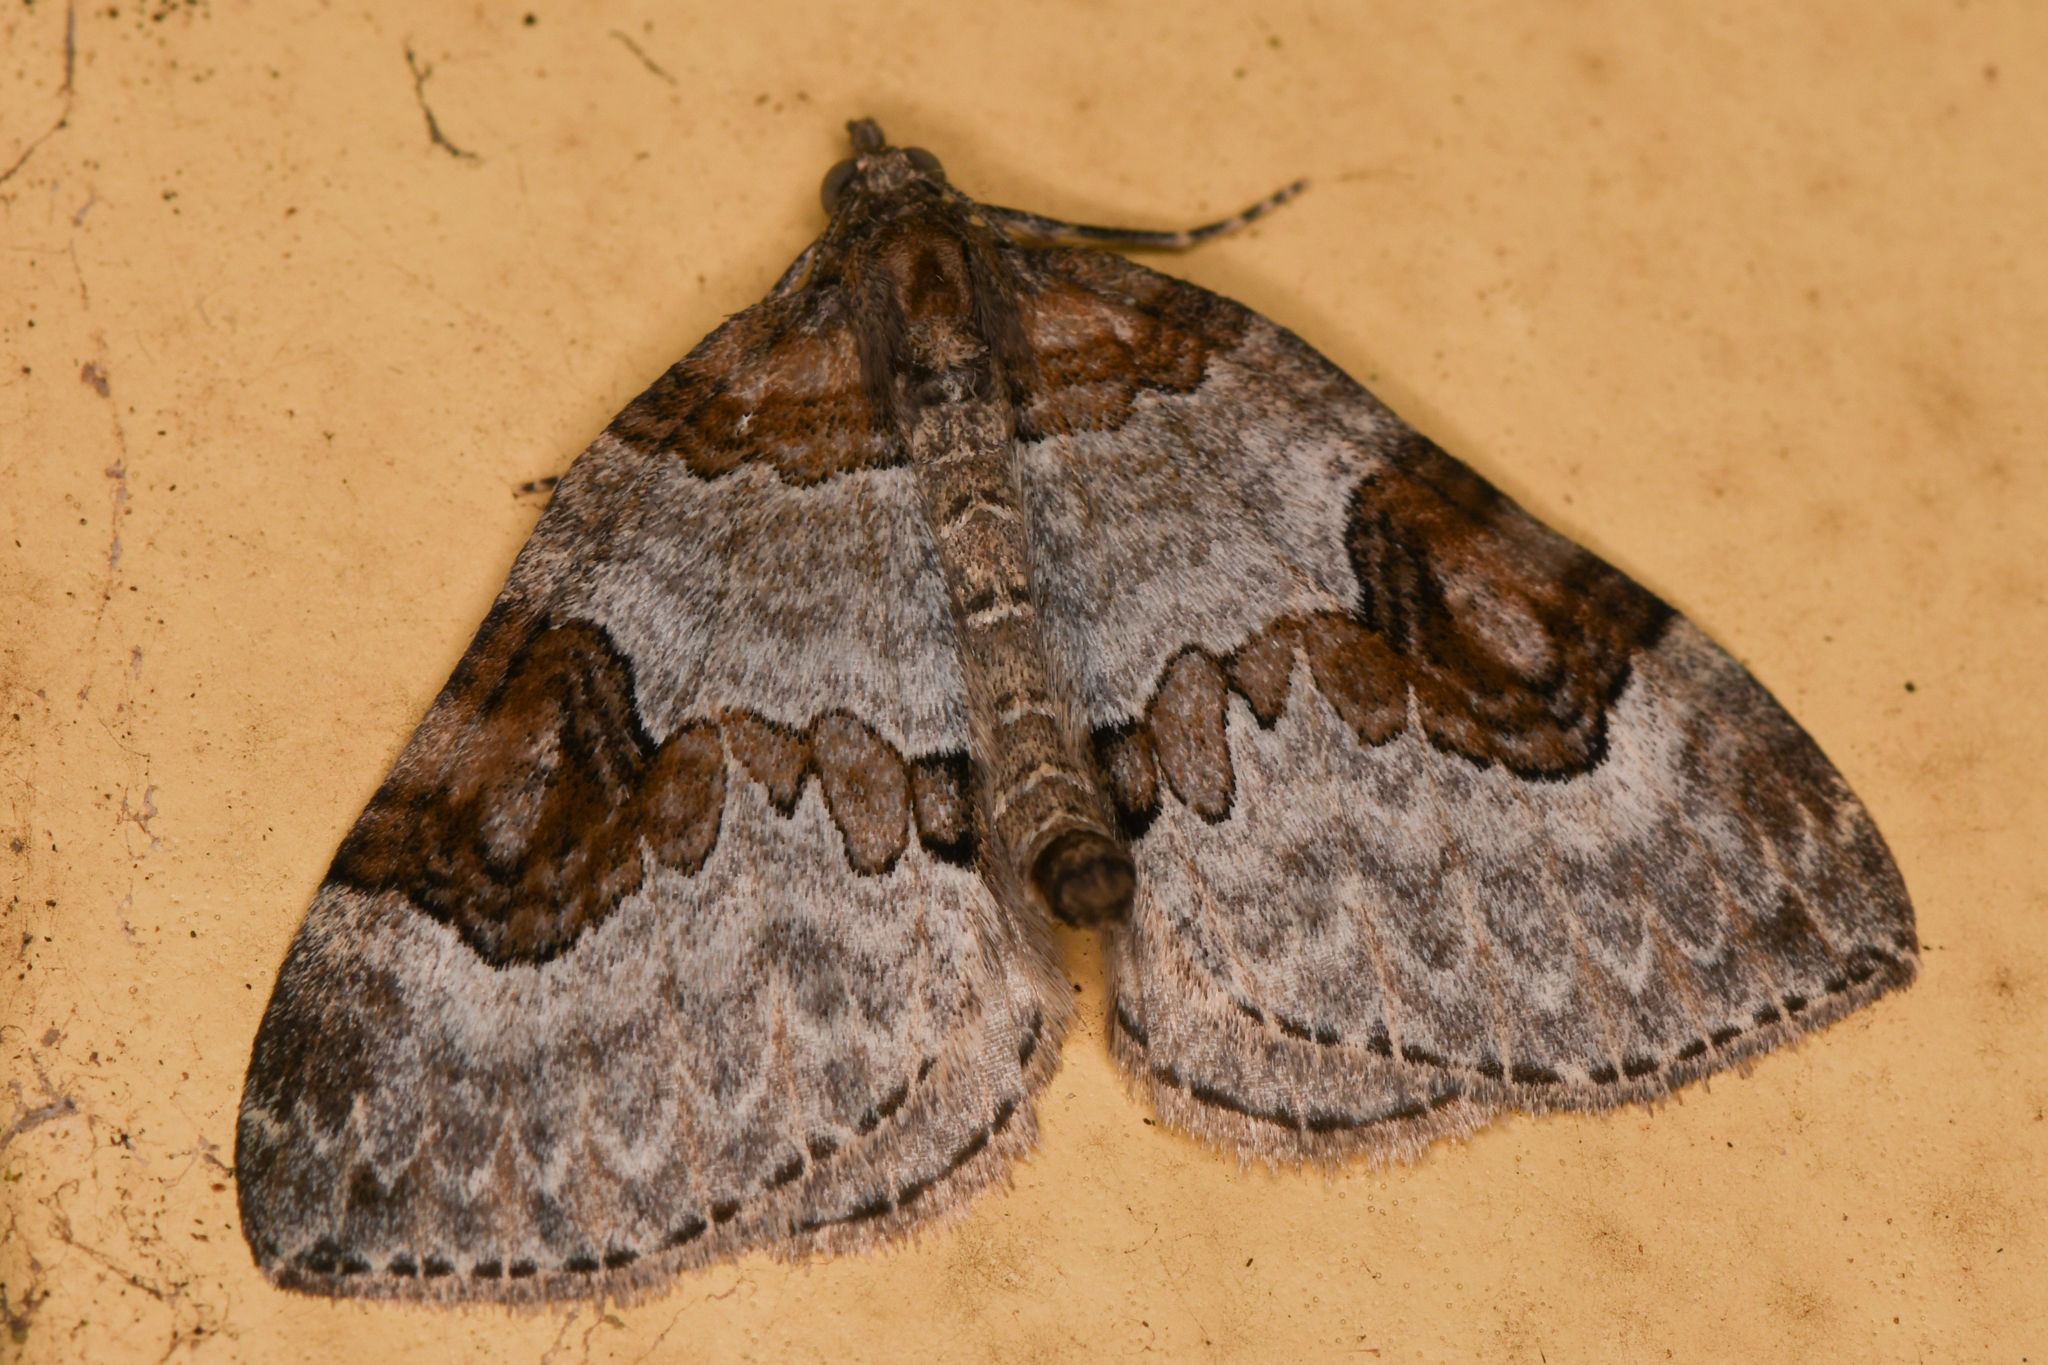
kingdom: Animalia
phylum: Arthropoda
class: Insecta
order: Lepidoptera
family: Geometridae
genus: Plemyria
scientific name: Plemyria georgii
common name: George's carpet moth
